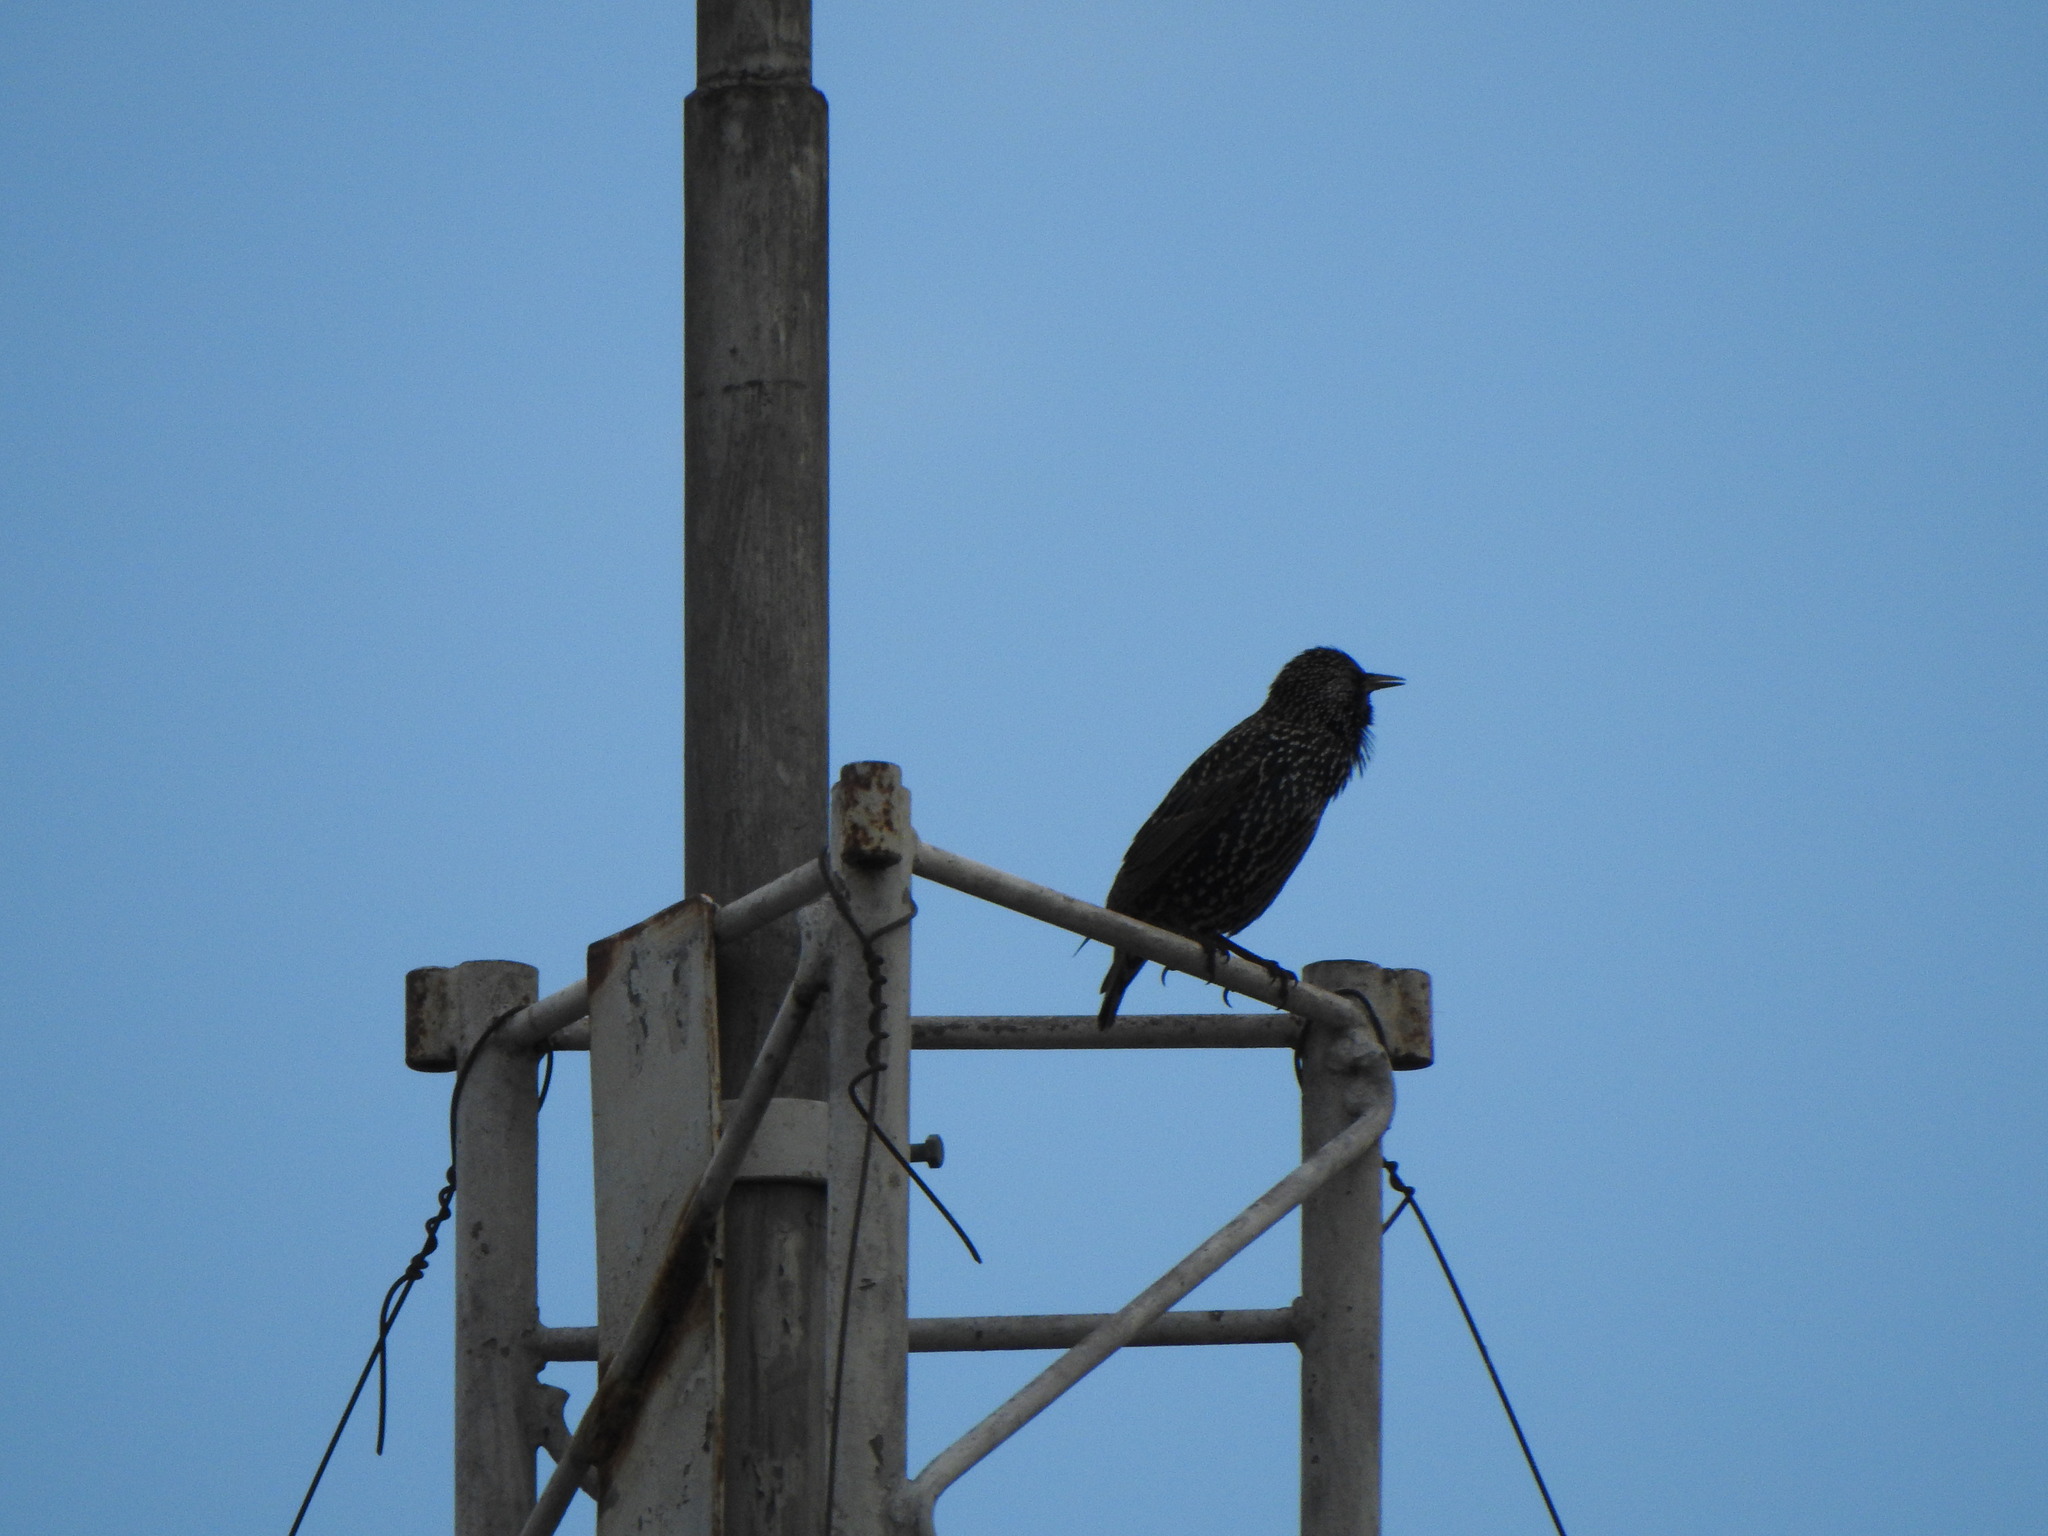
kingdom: Animalia
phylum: Chordata
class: Aves
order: Passeriformes
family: Sturnidae
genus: Sturnus
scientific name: Sturnus vulgaris
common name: Common starling
